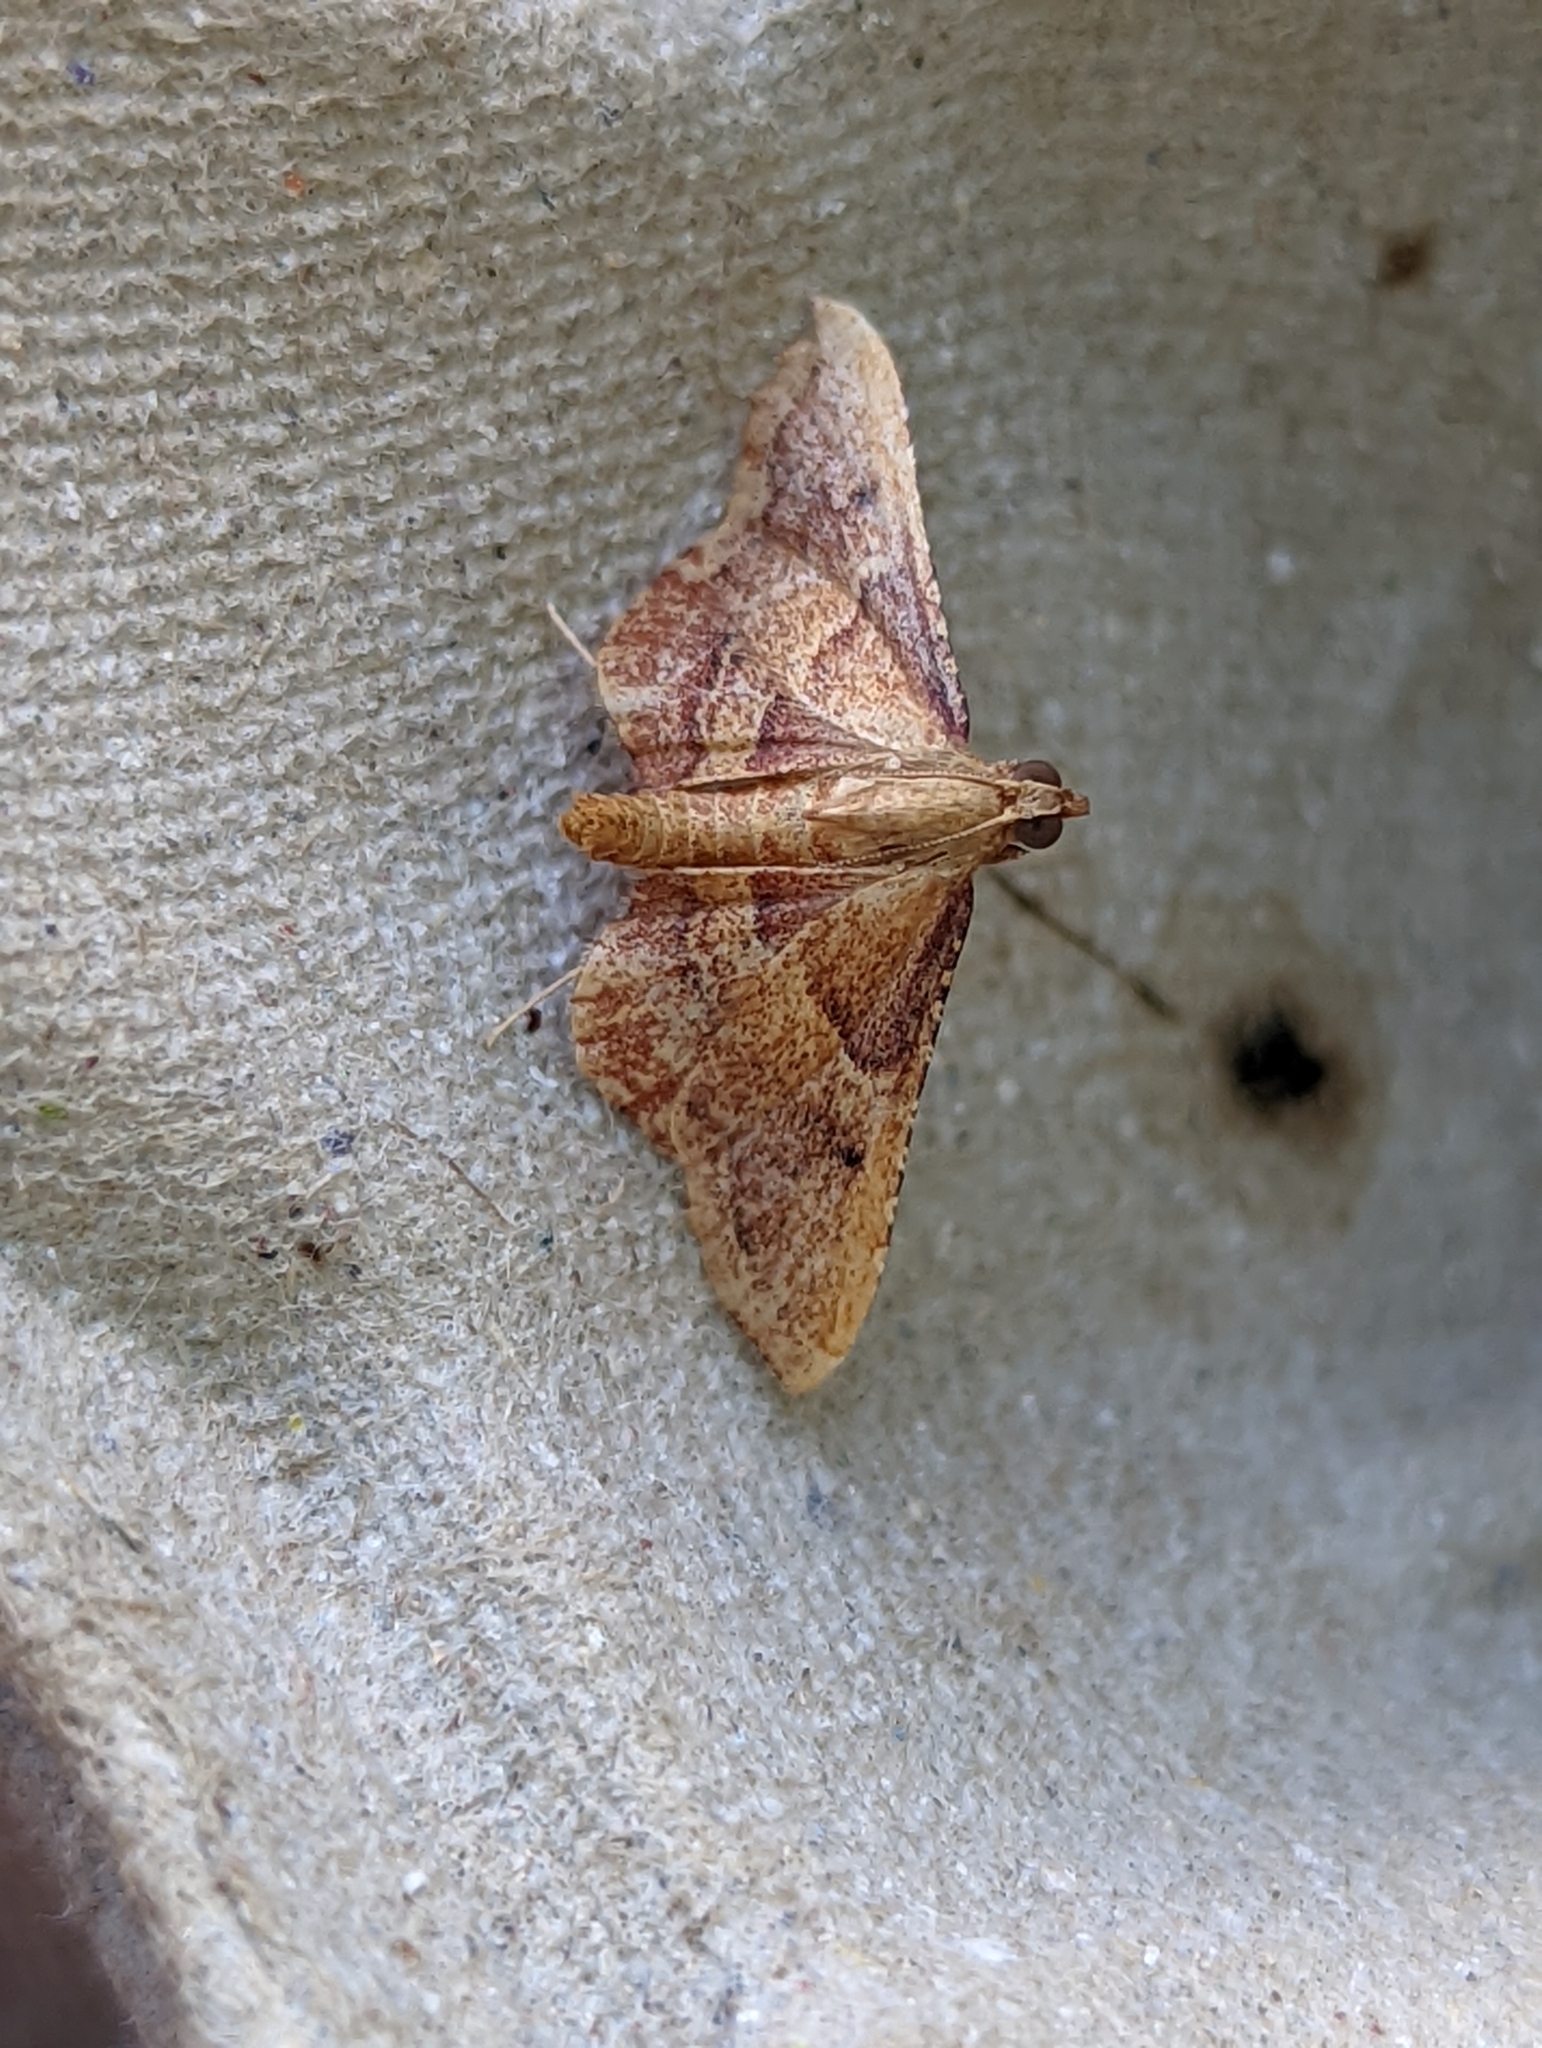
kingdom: Animalia
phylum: Arthropoda
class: Insecta
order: Lepidoptera
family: Pyralidae
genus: Endotricha
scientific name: Endotricha flammealis
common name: Rosy tabby
